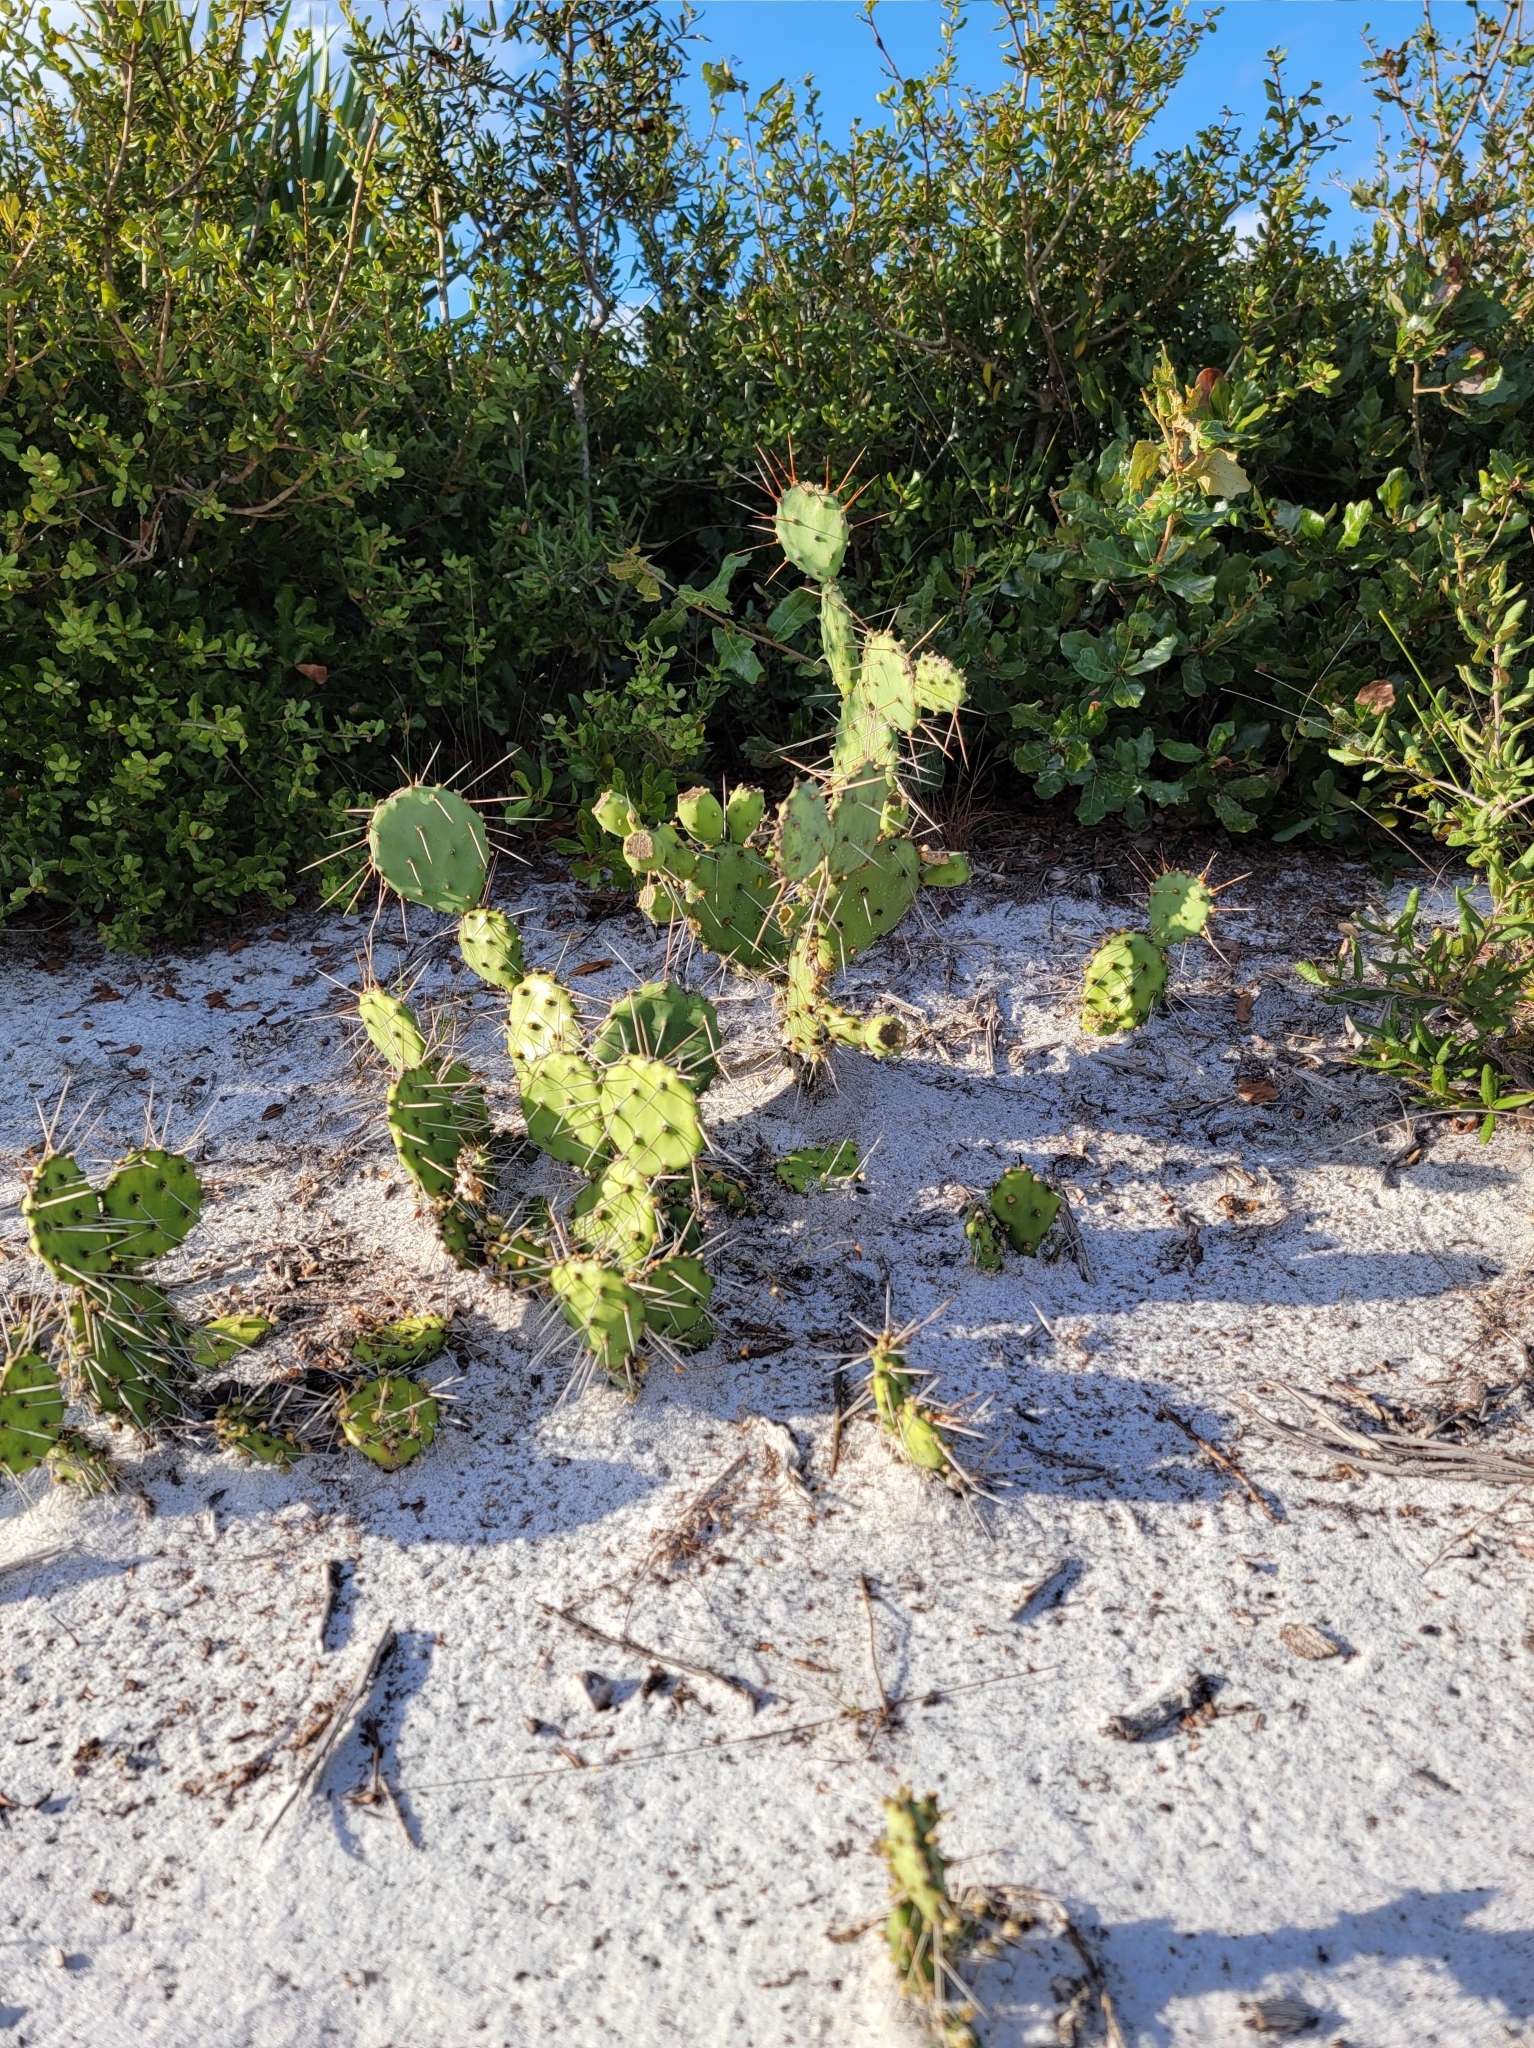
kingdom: Plantae
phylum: Tracheophyta
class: Magnoliopsida
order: Caryophyllales
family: Cactaceae
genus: Opuntia
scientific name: Opuntia austrina
